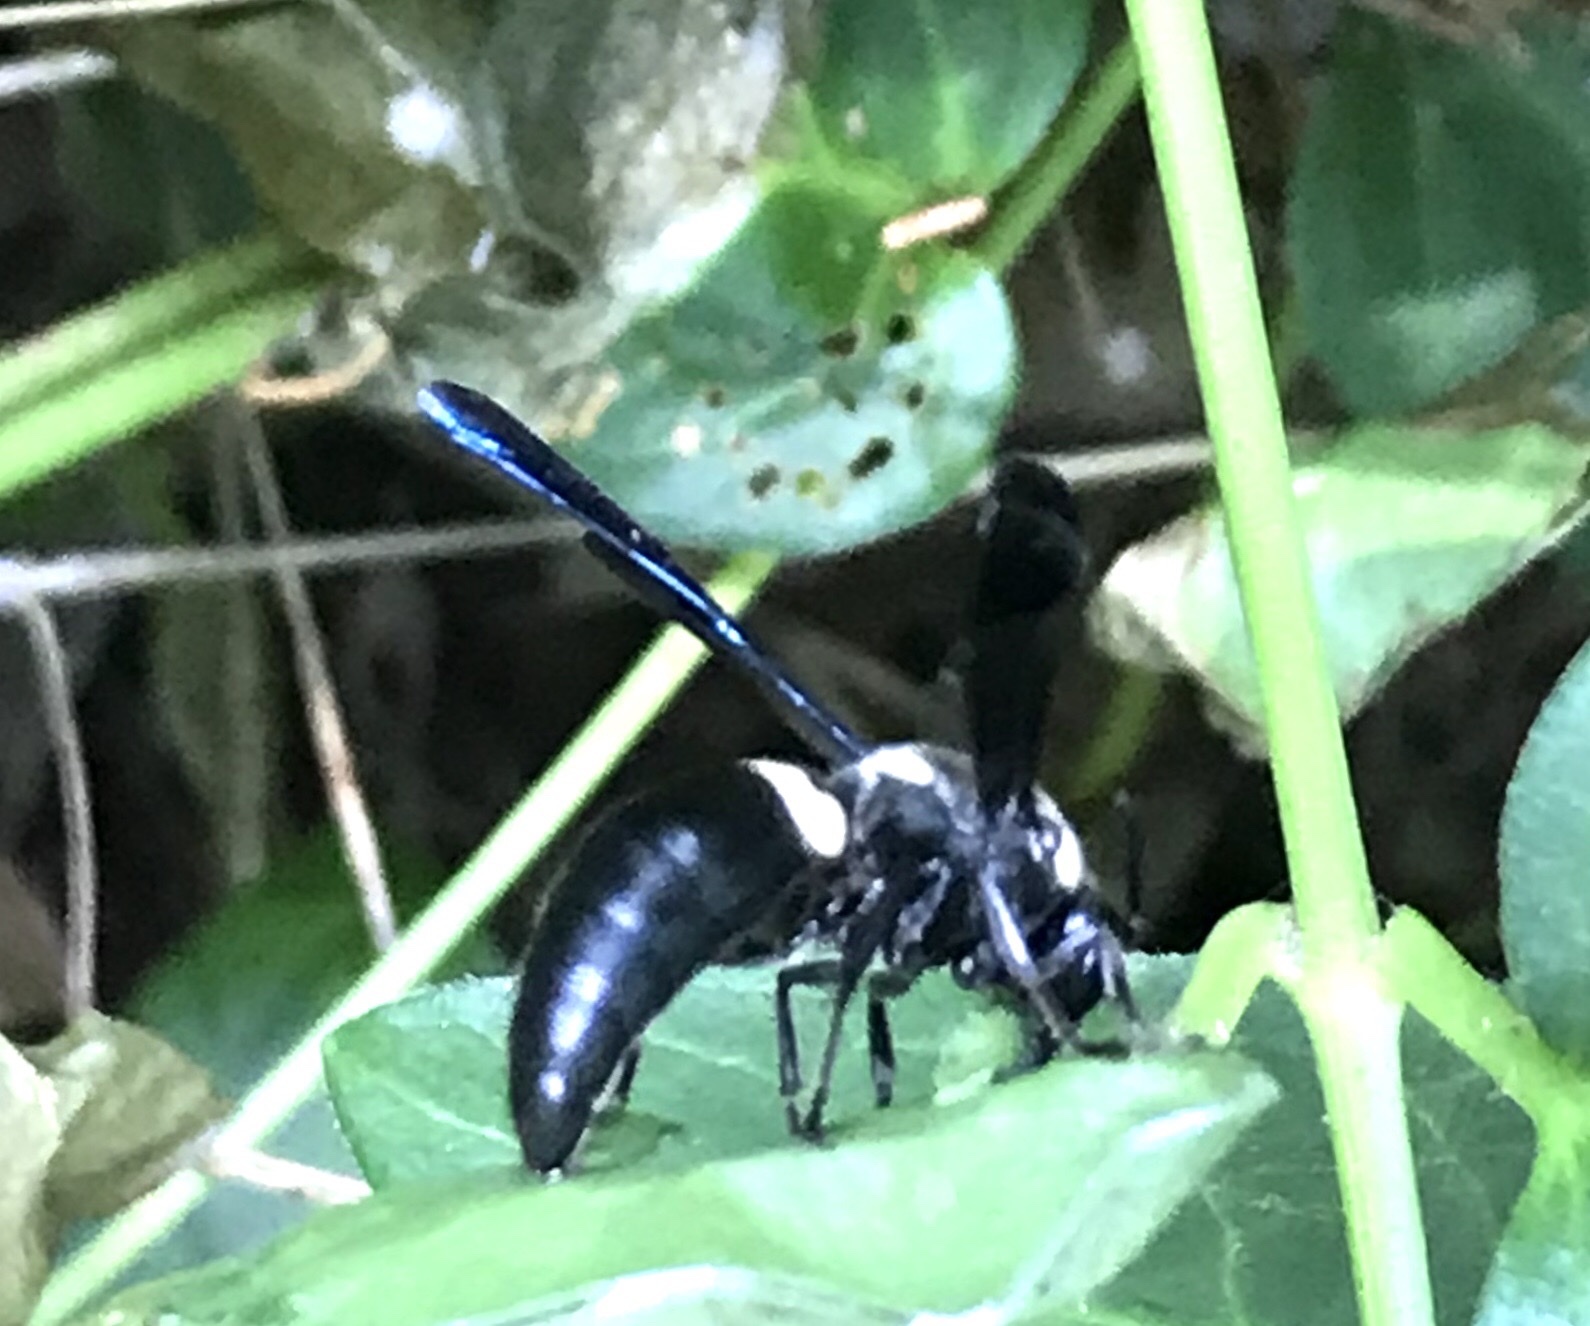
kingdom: Animalia
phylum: Arthropoda
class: Insecta
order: Hymenoptera
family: Eumenidae
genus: Monobia
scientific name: Monobia quadridens
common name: Four-toothed mason wasp
